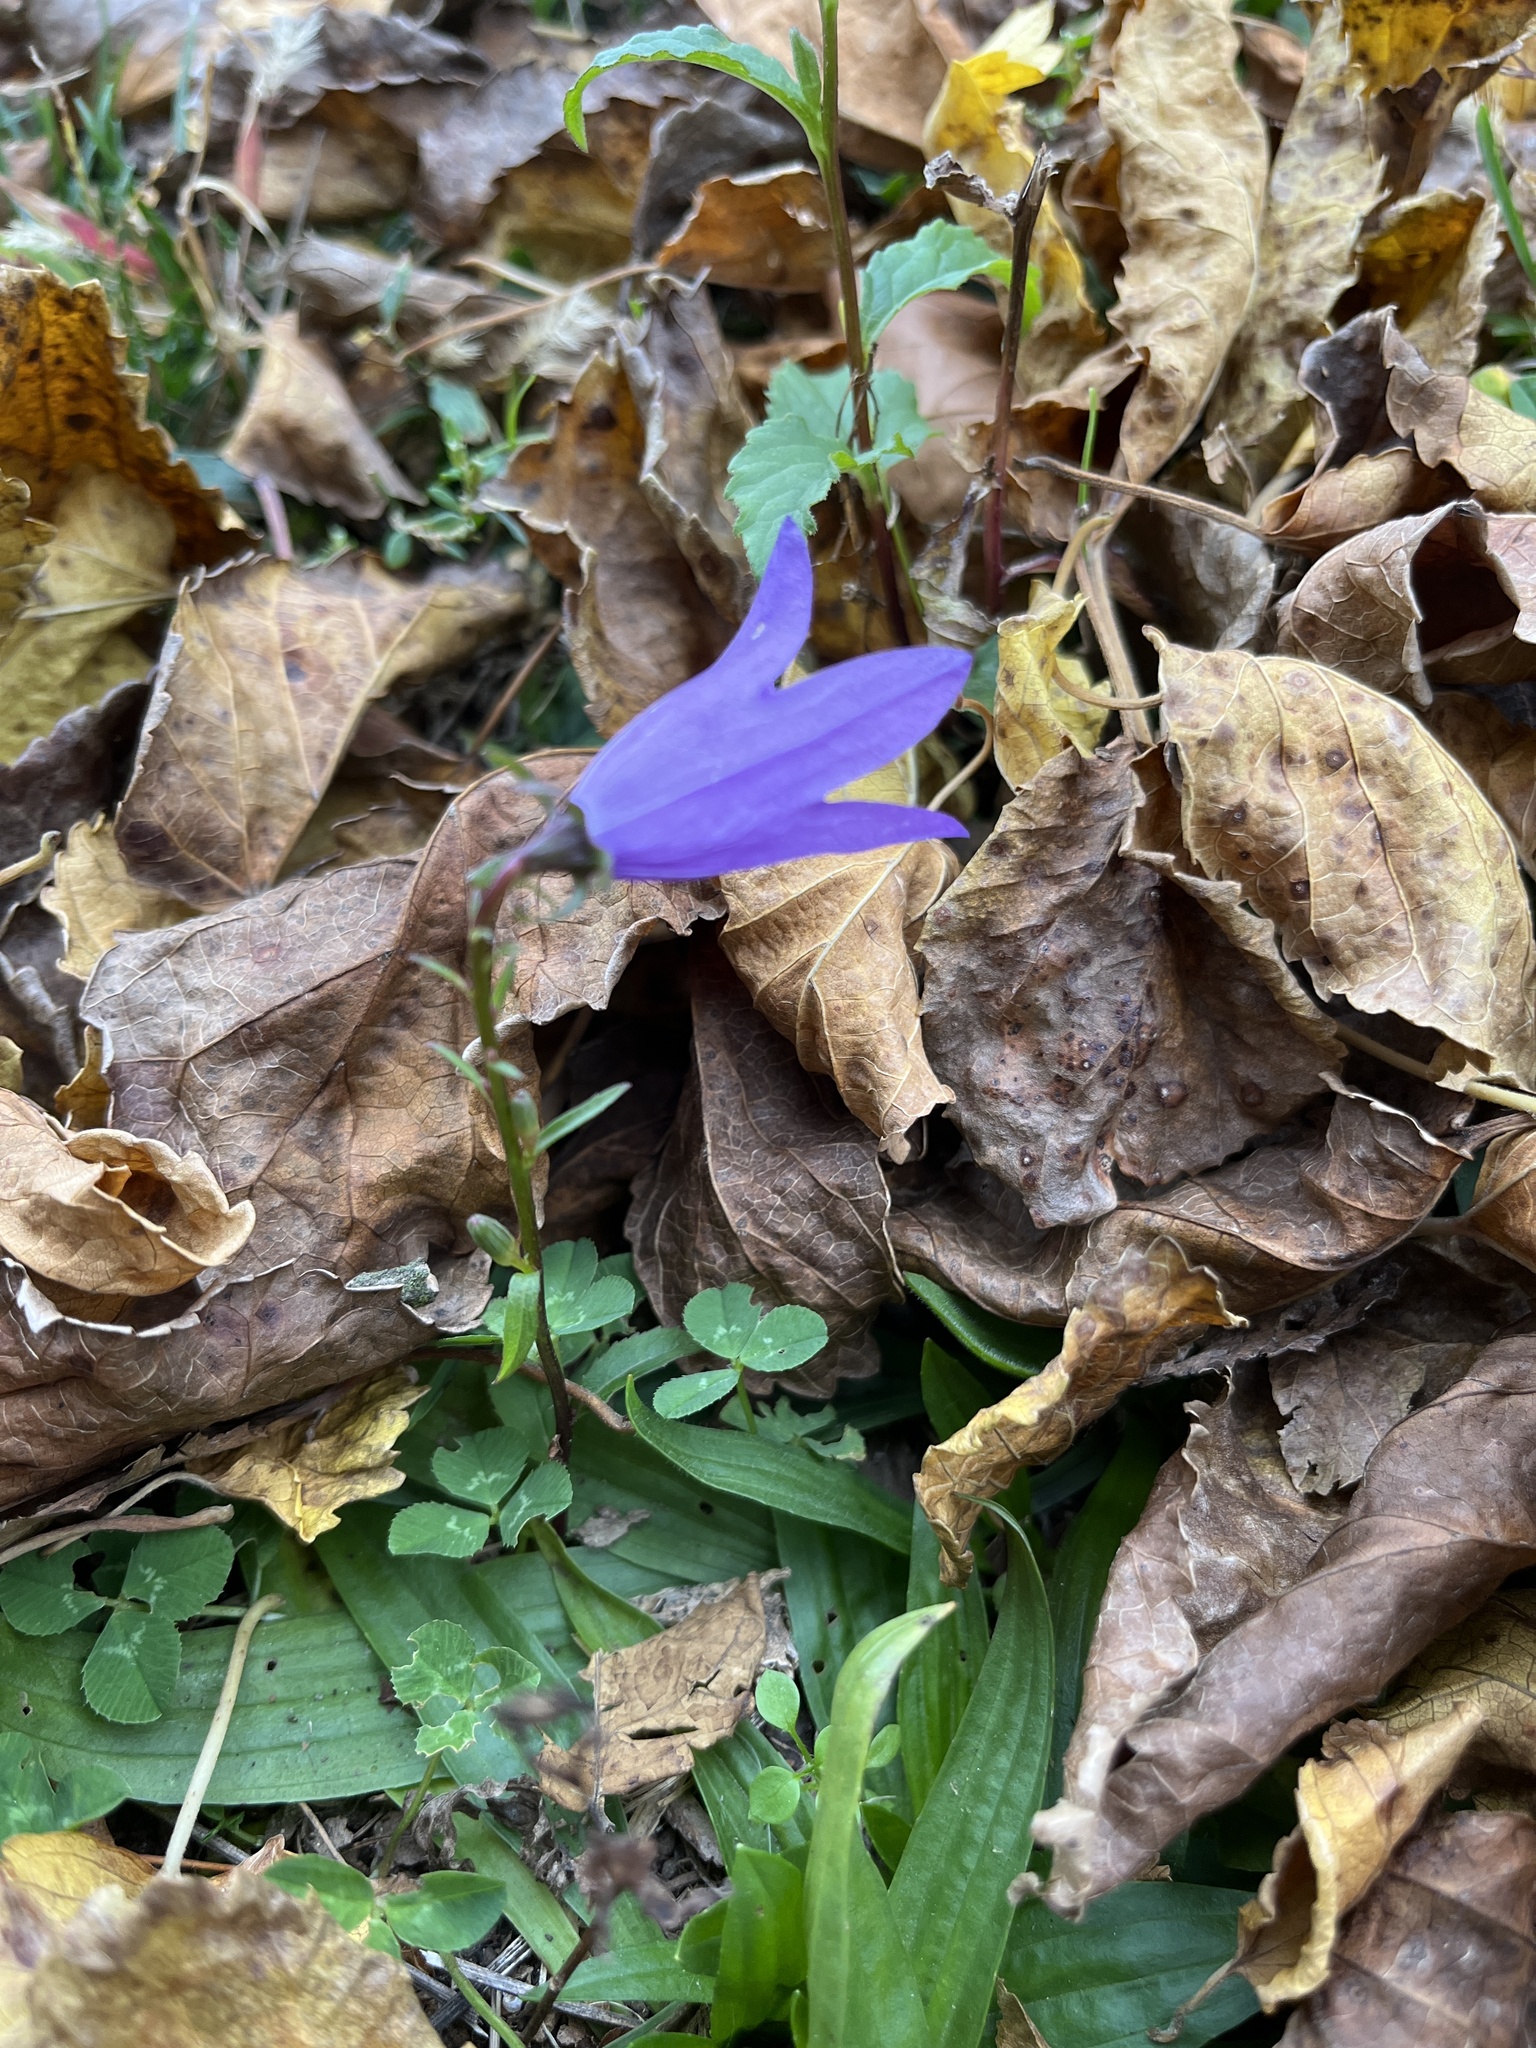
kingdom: Plantae
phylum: Tracheophyta
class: Magnoliopsida
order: Asterales
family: Campanulaceae
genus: Campanula
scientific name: Campanula rapunculoides
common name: Creeping bellflower
